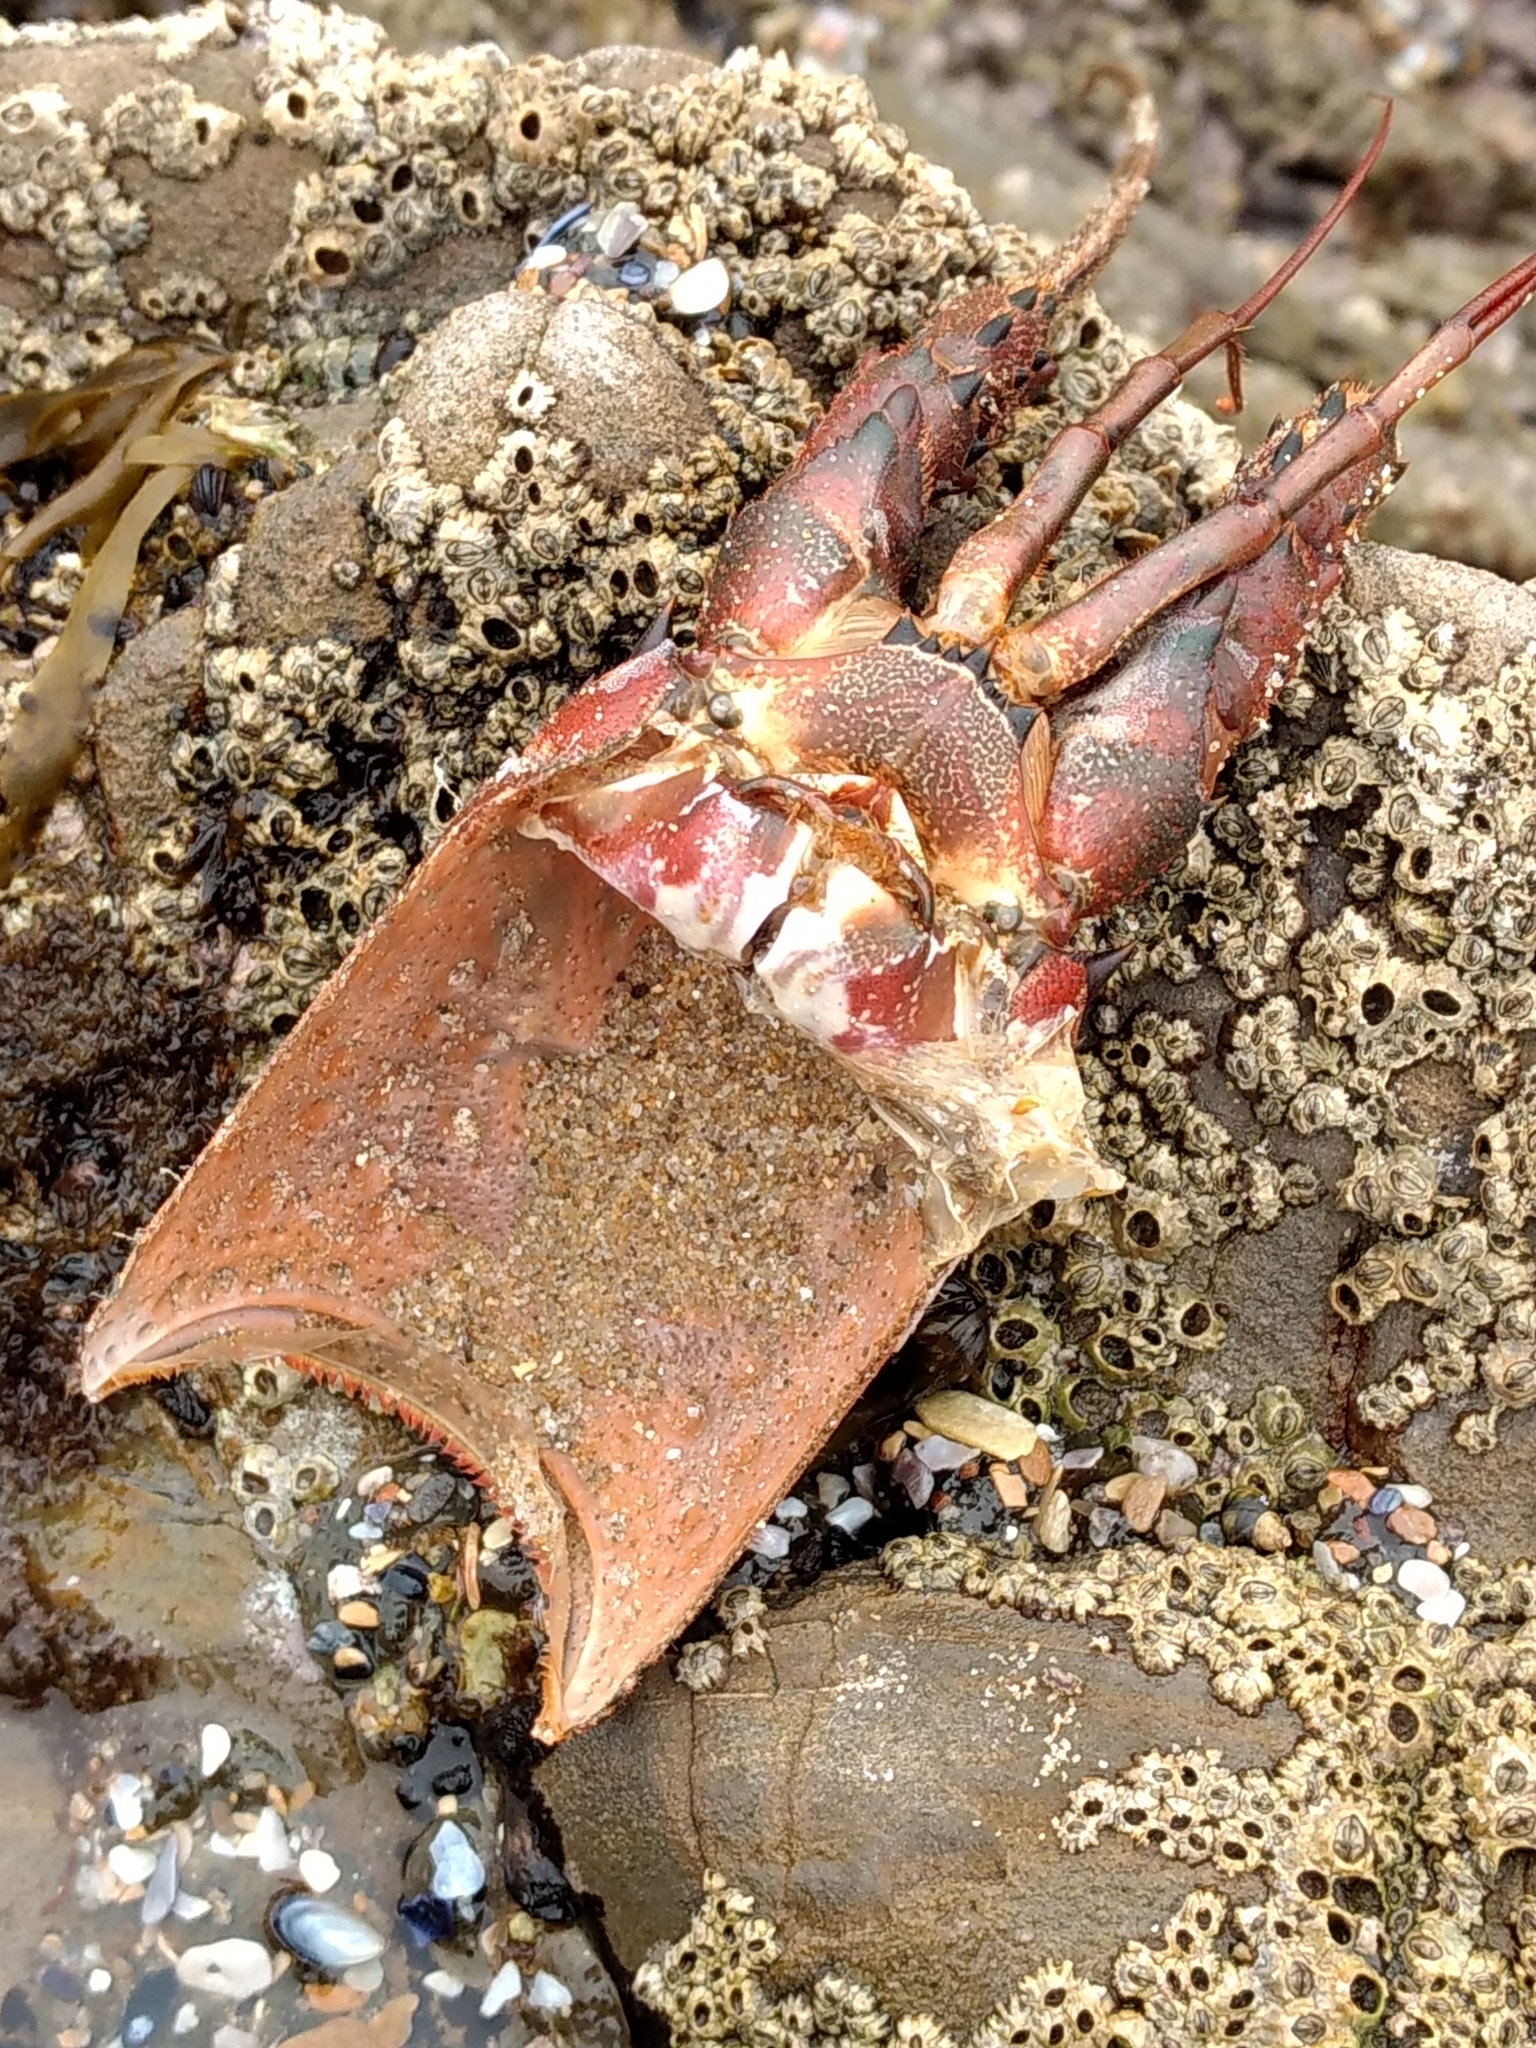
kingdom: Animalia
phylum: Arthropoda
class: Malacostraca
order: Decapoda
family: Palinuridae
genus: Panulirus
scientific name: Panulirus interruptus
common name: California spiny lobster
